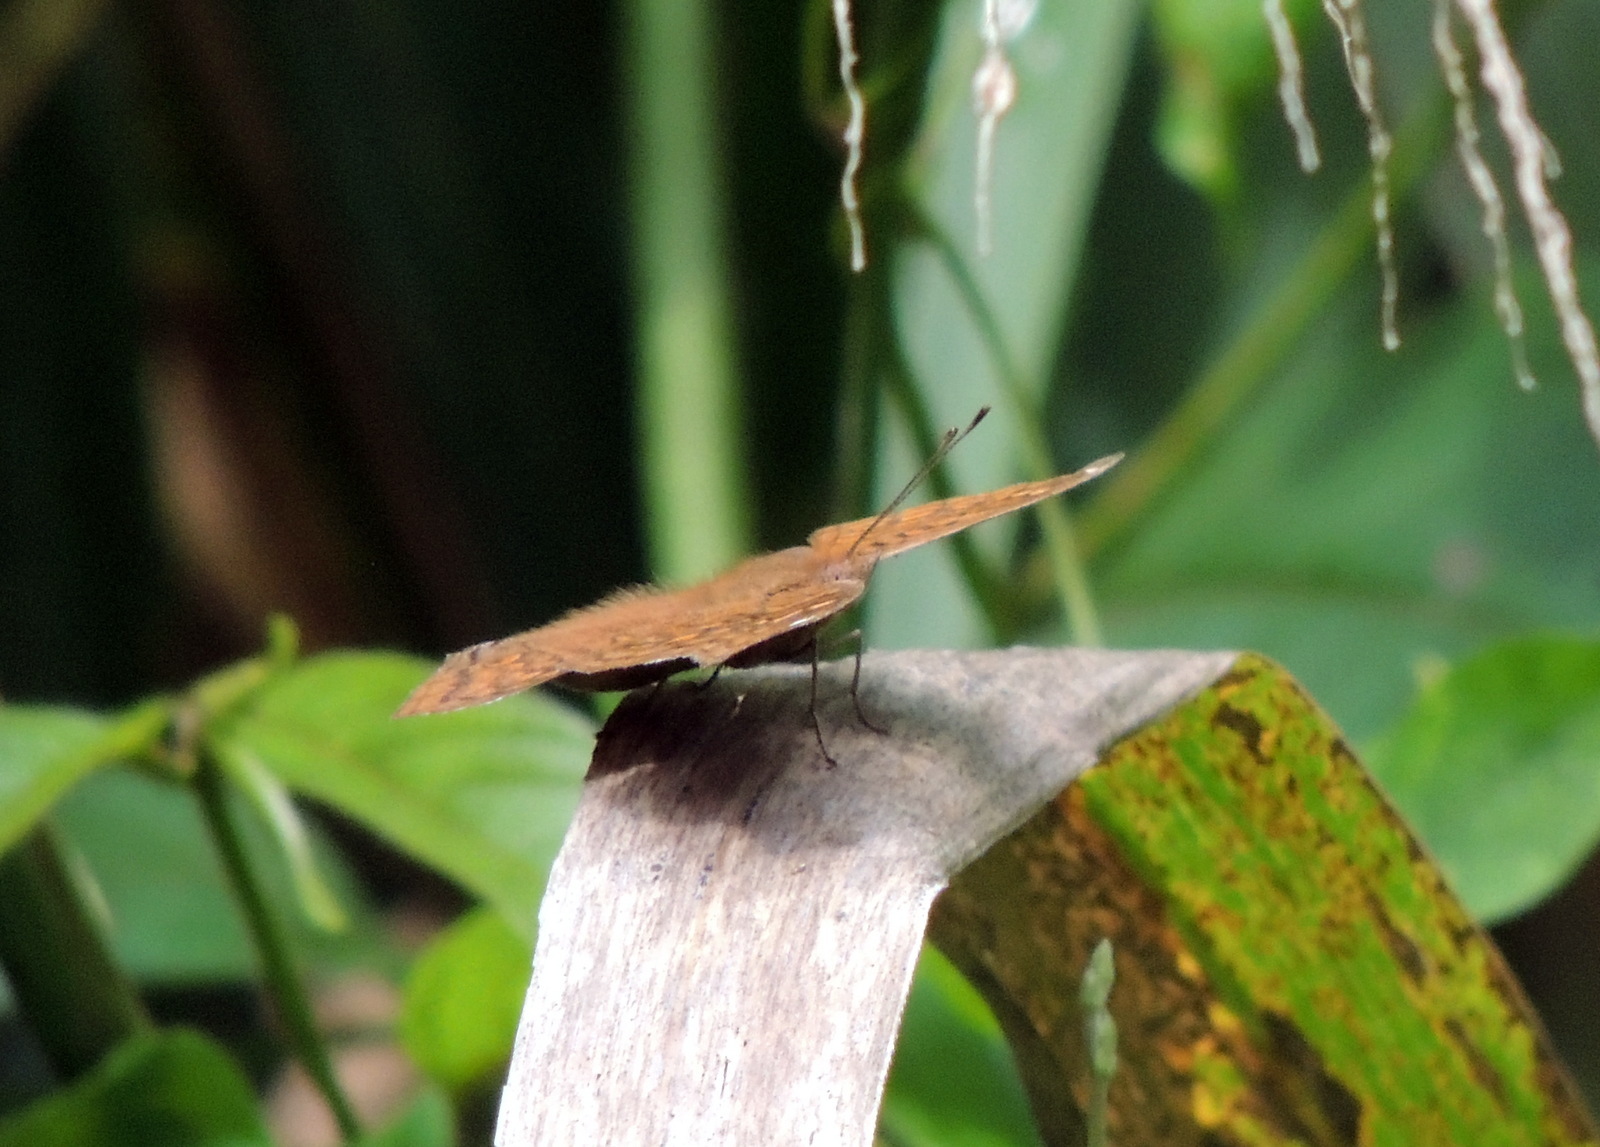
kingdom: Animalia
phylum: Arthropoda
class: Insecta
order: Lepidoptera
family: Nymphalidae
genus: Junonia
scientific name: Junonia chorimene
